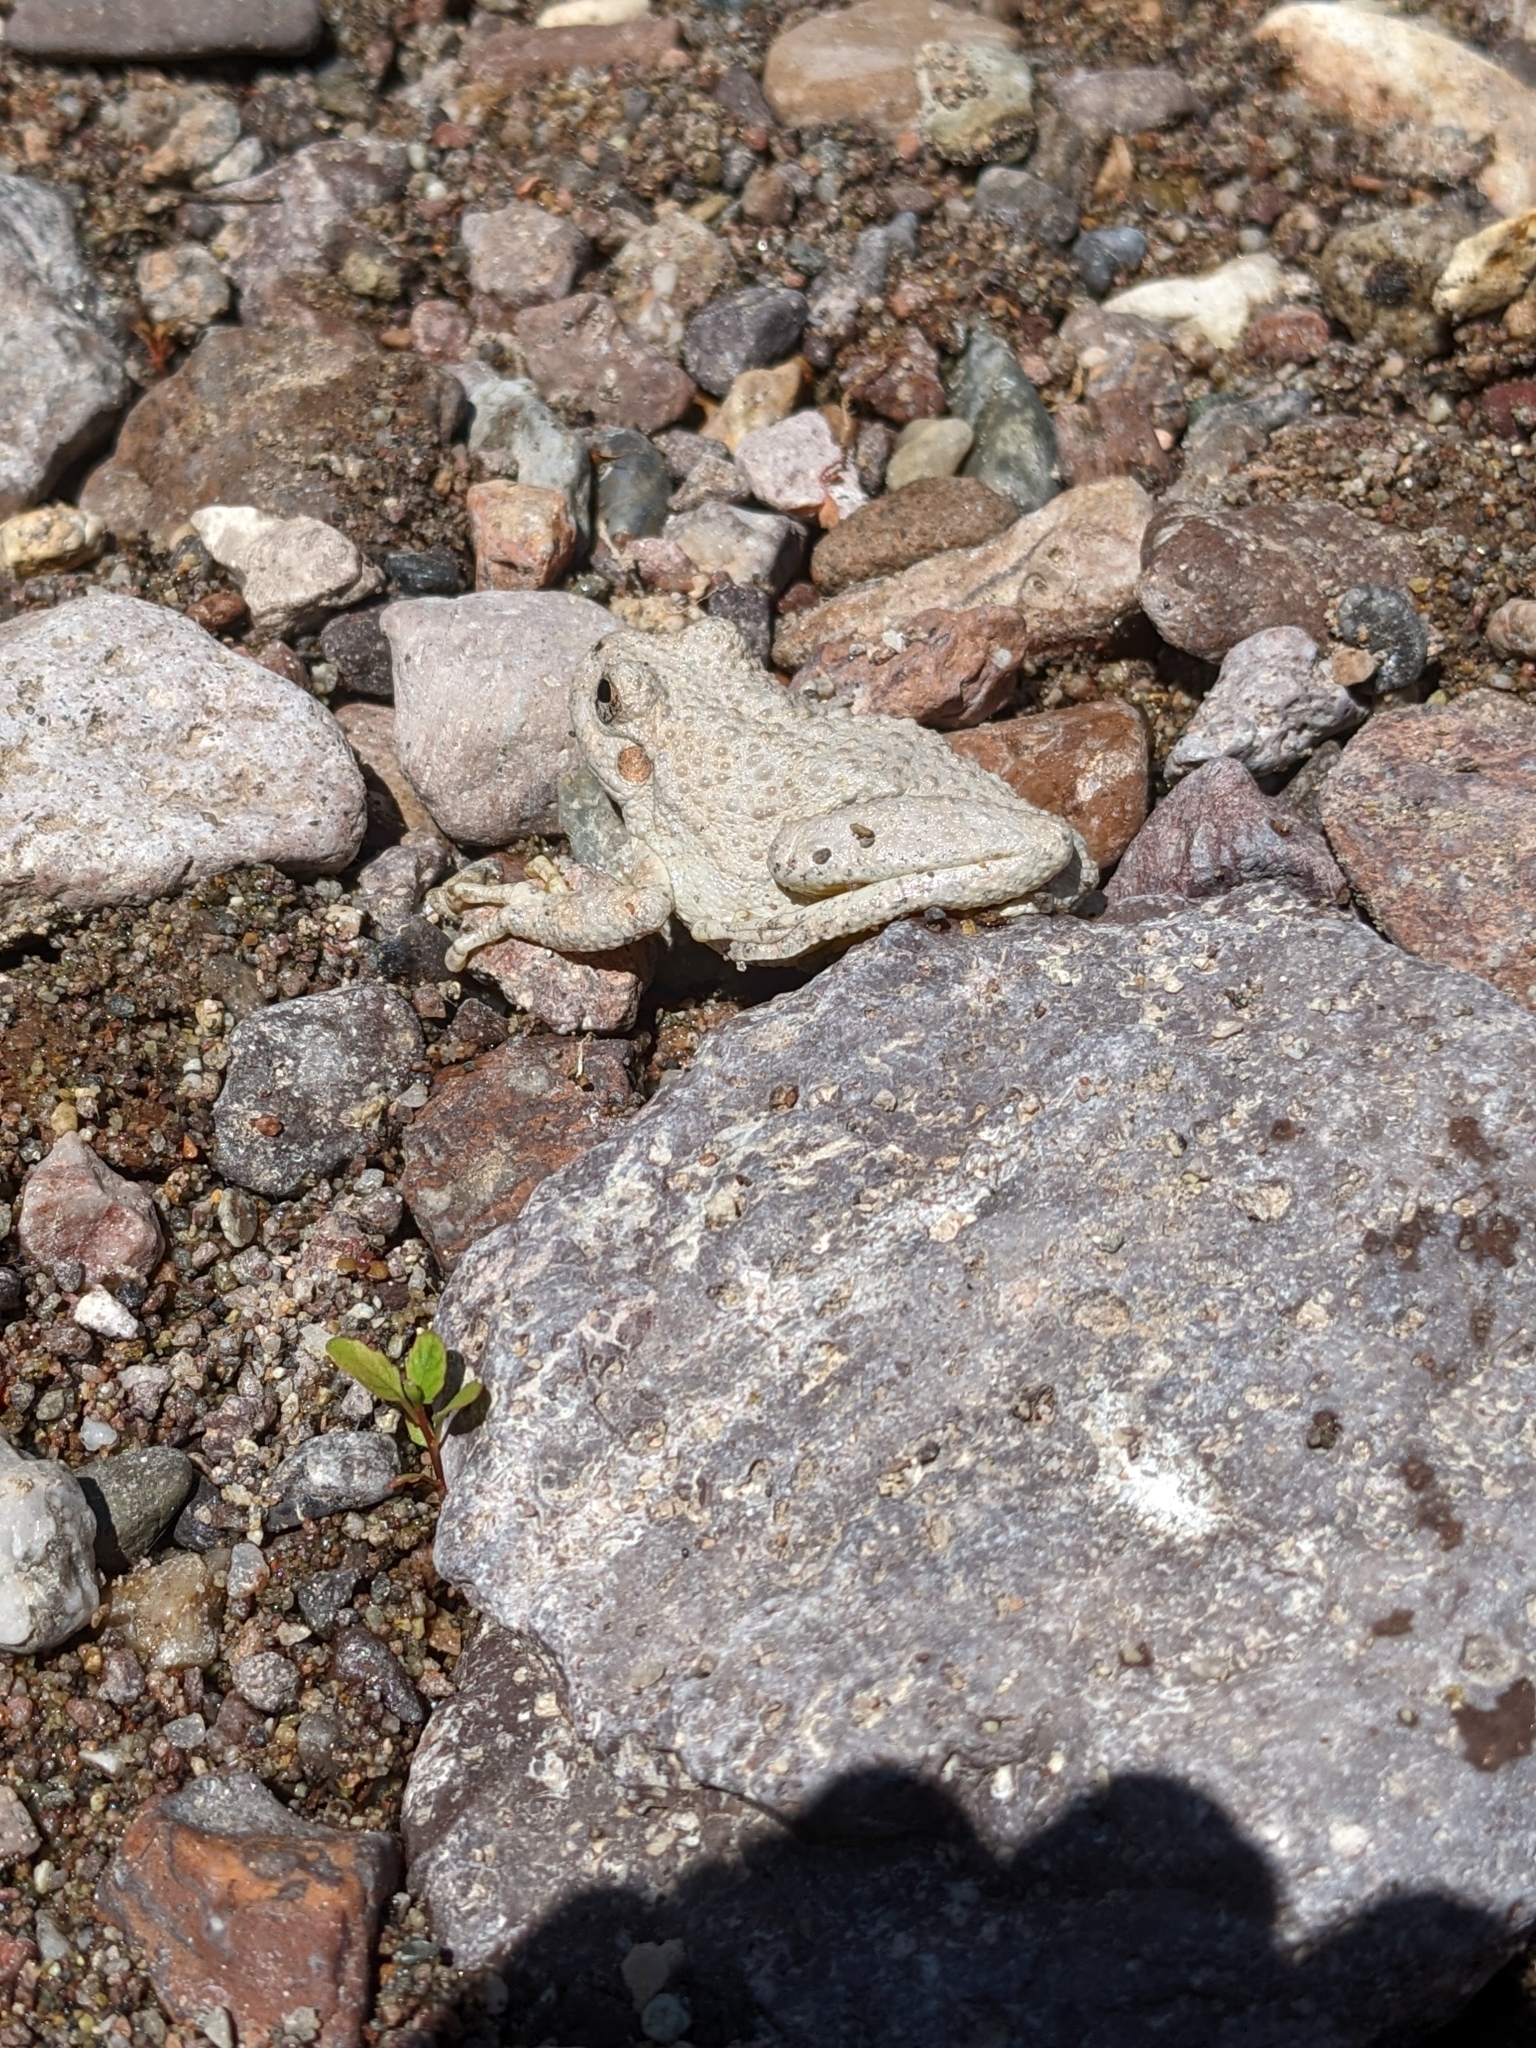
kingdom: Animalia
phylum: Chordata
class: Amphibia
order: Anura
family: Hylidae
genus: Dryophytes
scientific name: Dryophytes arenicolor
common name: Canyon treefrog
